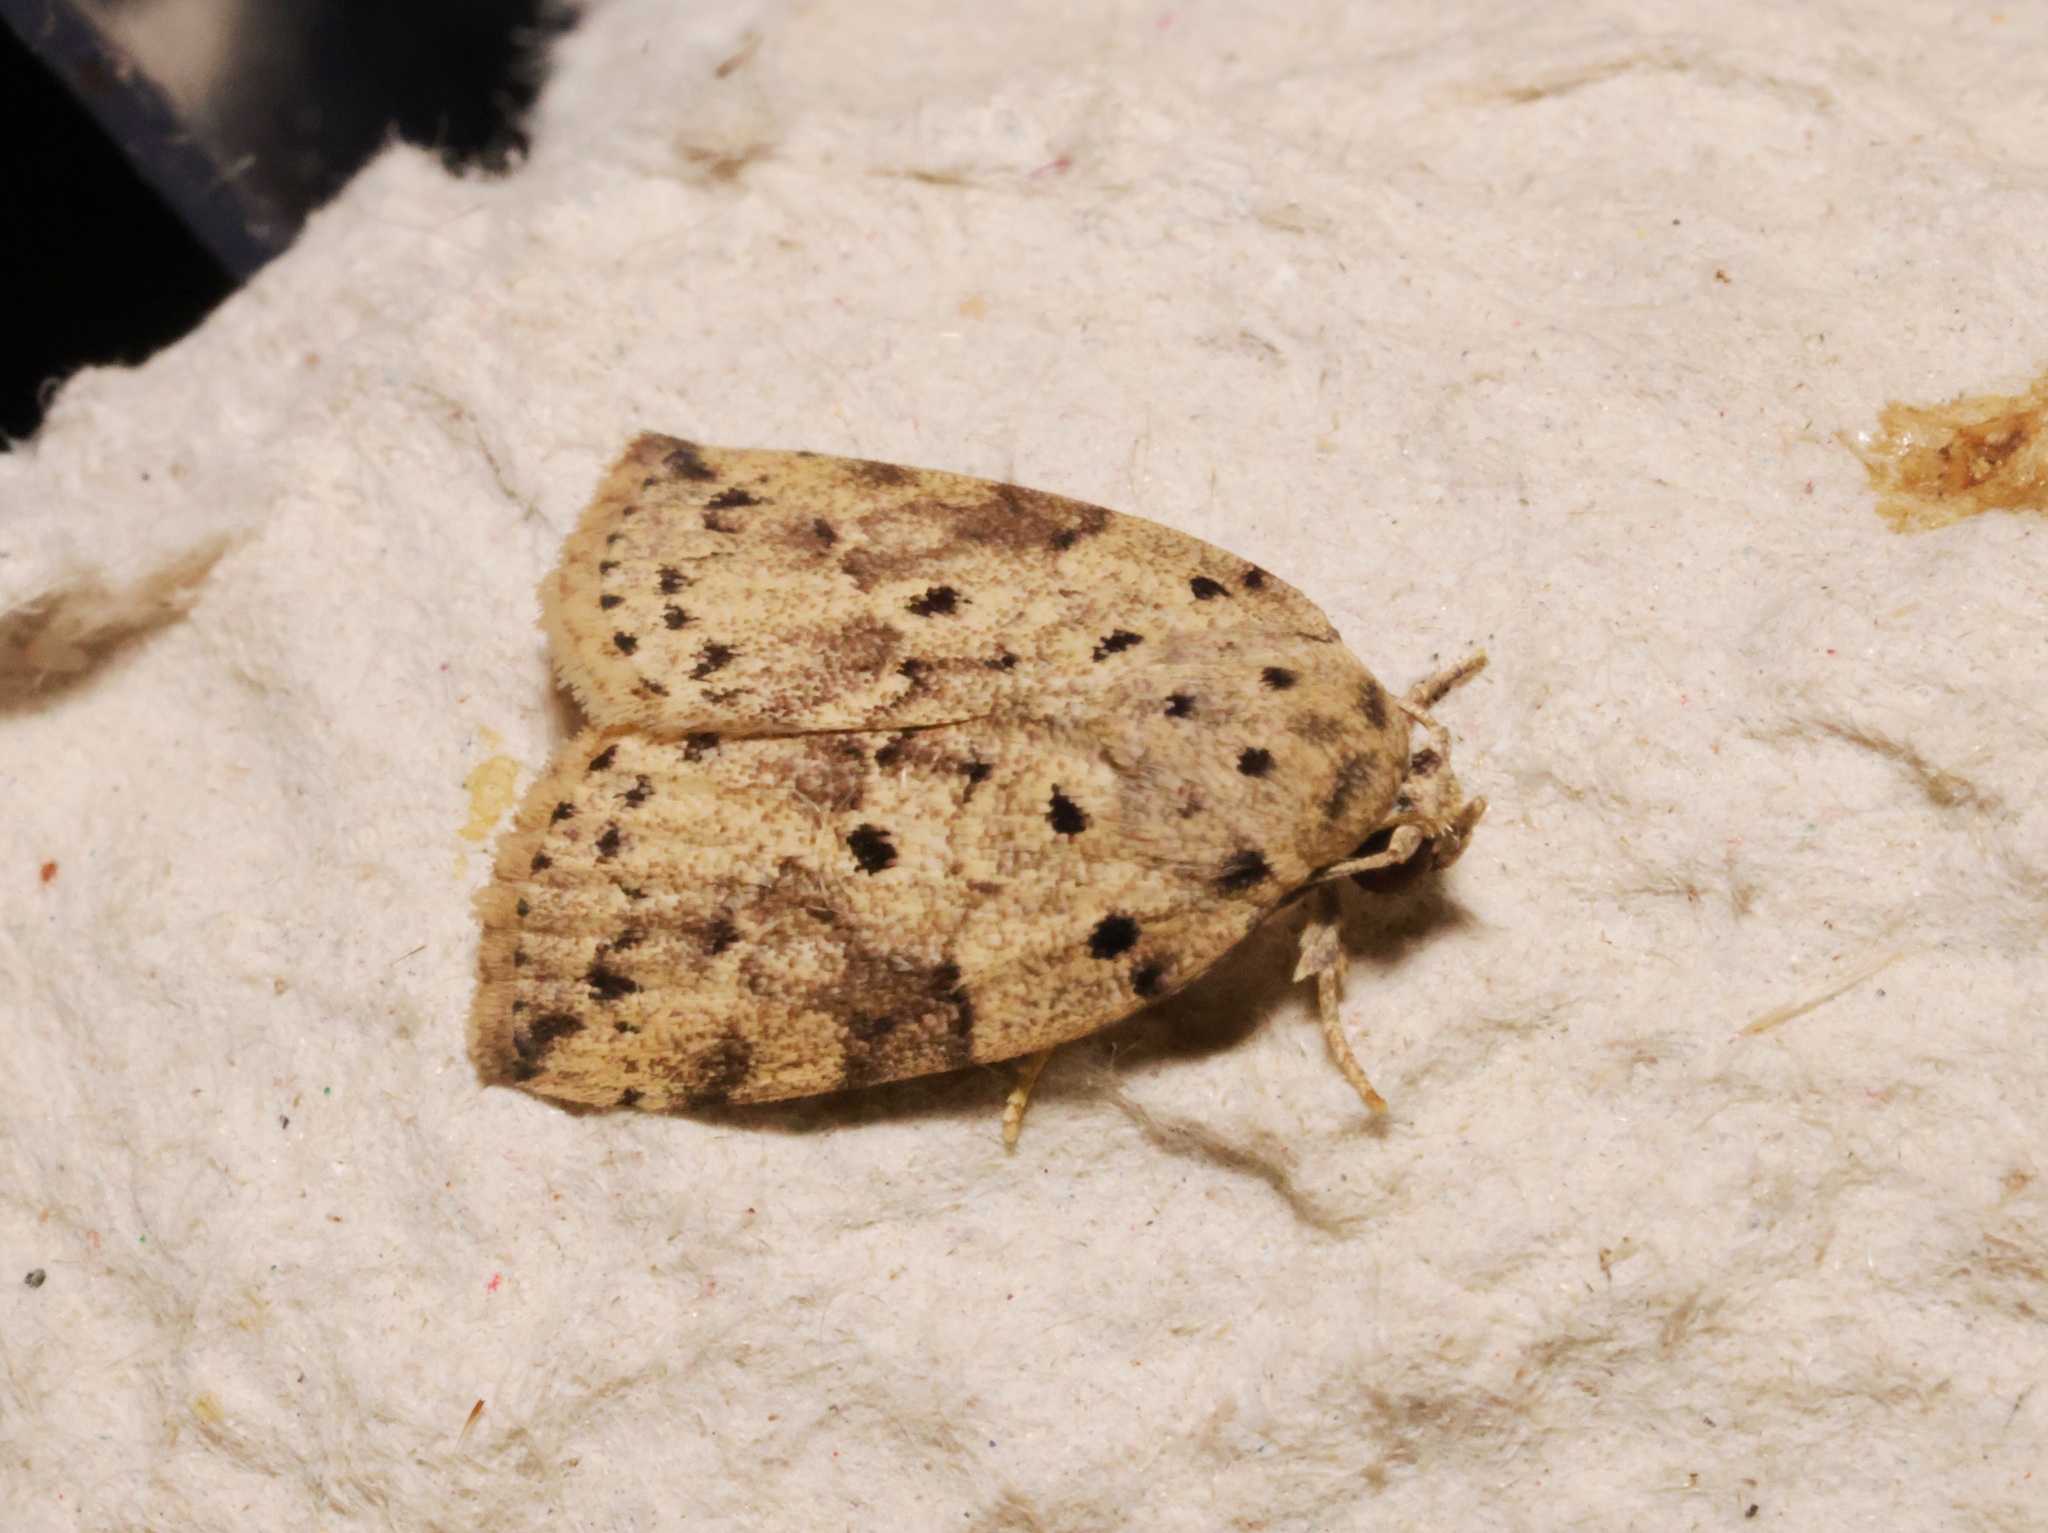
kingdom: Animalia
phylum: Arthropoda
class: Insecta
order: Lepidoptera
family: Nolidae
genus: Giaura
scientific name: Giaura multipunctata
